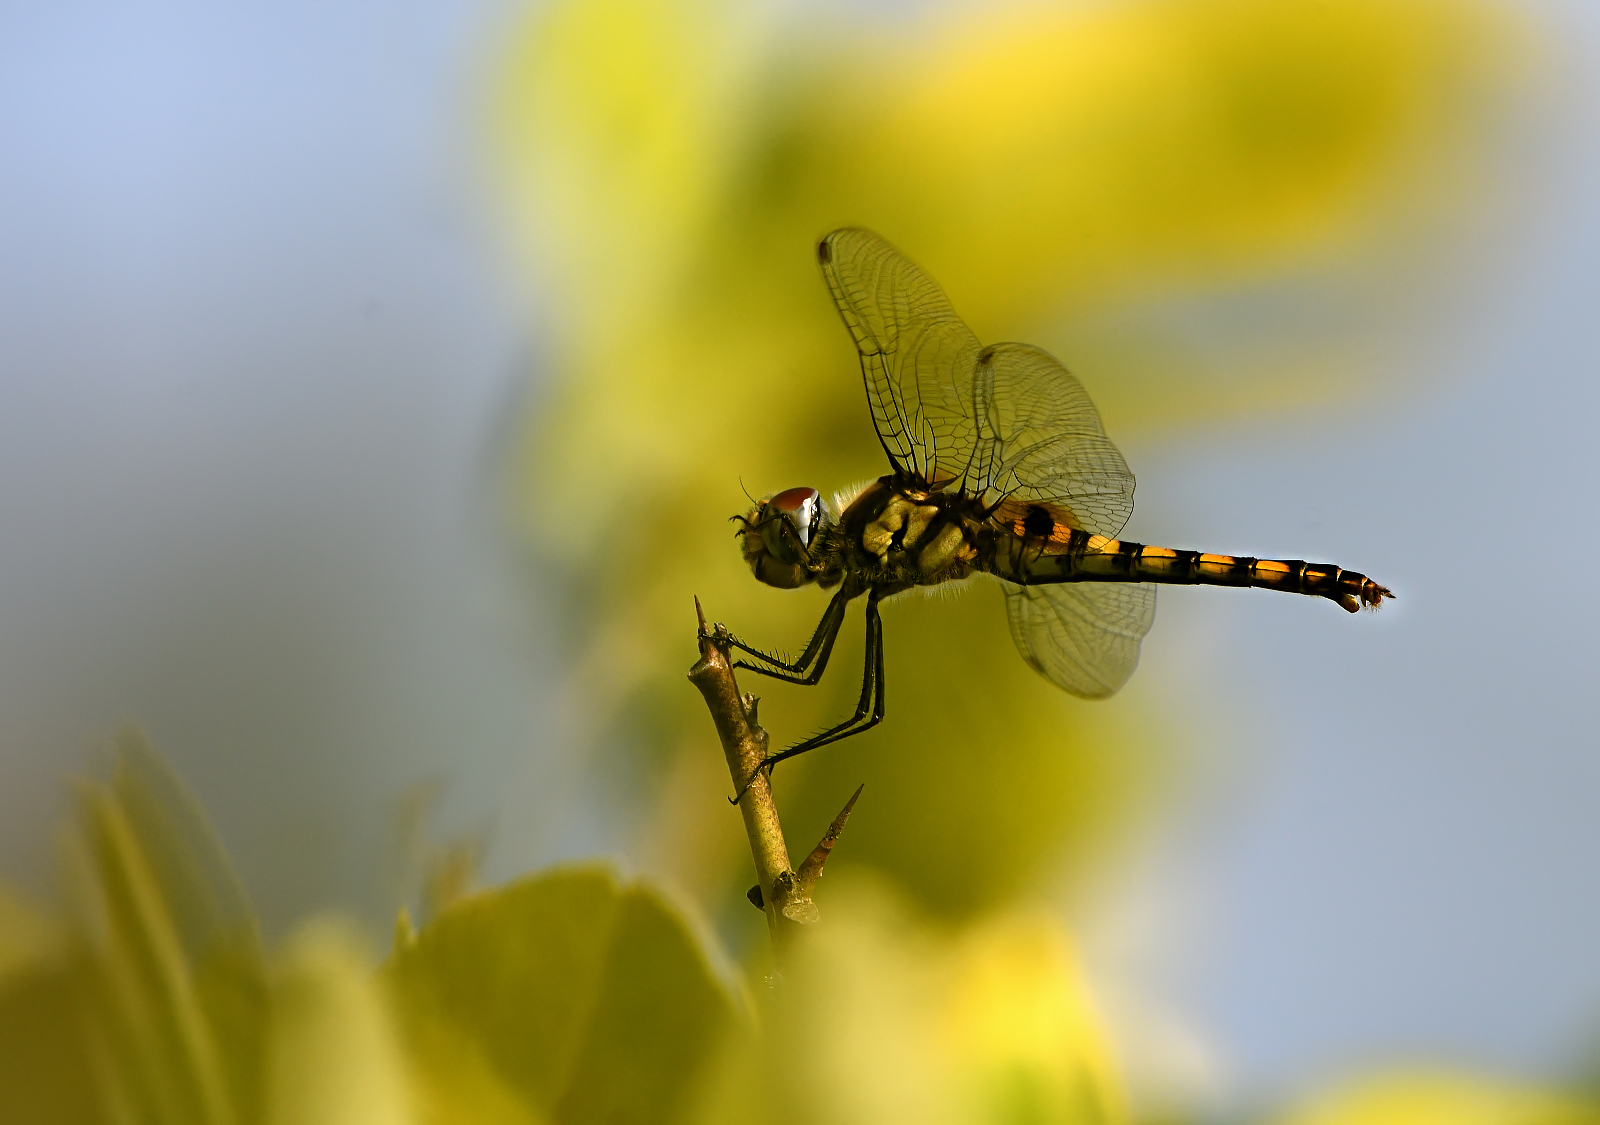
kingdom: Animalia
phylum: Arthropoda
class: Insecta
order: Odonata
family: Libellulidae
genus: Urothemis
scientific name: Urothemis signata
